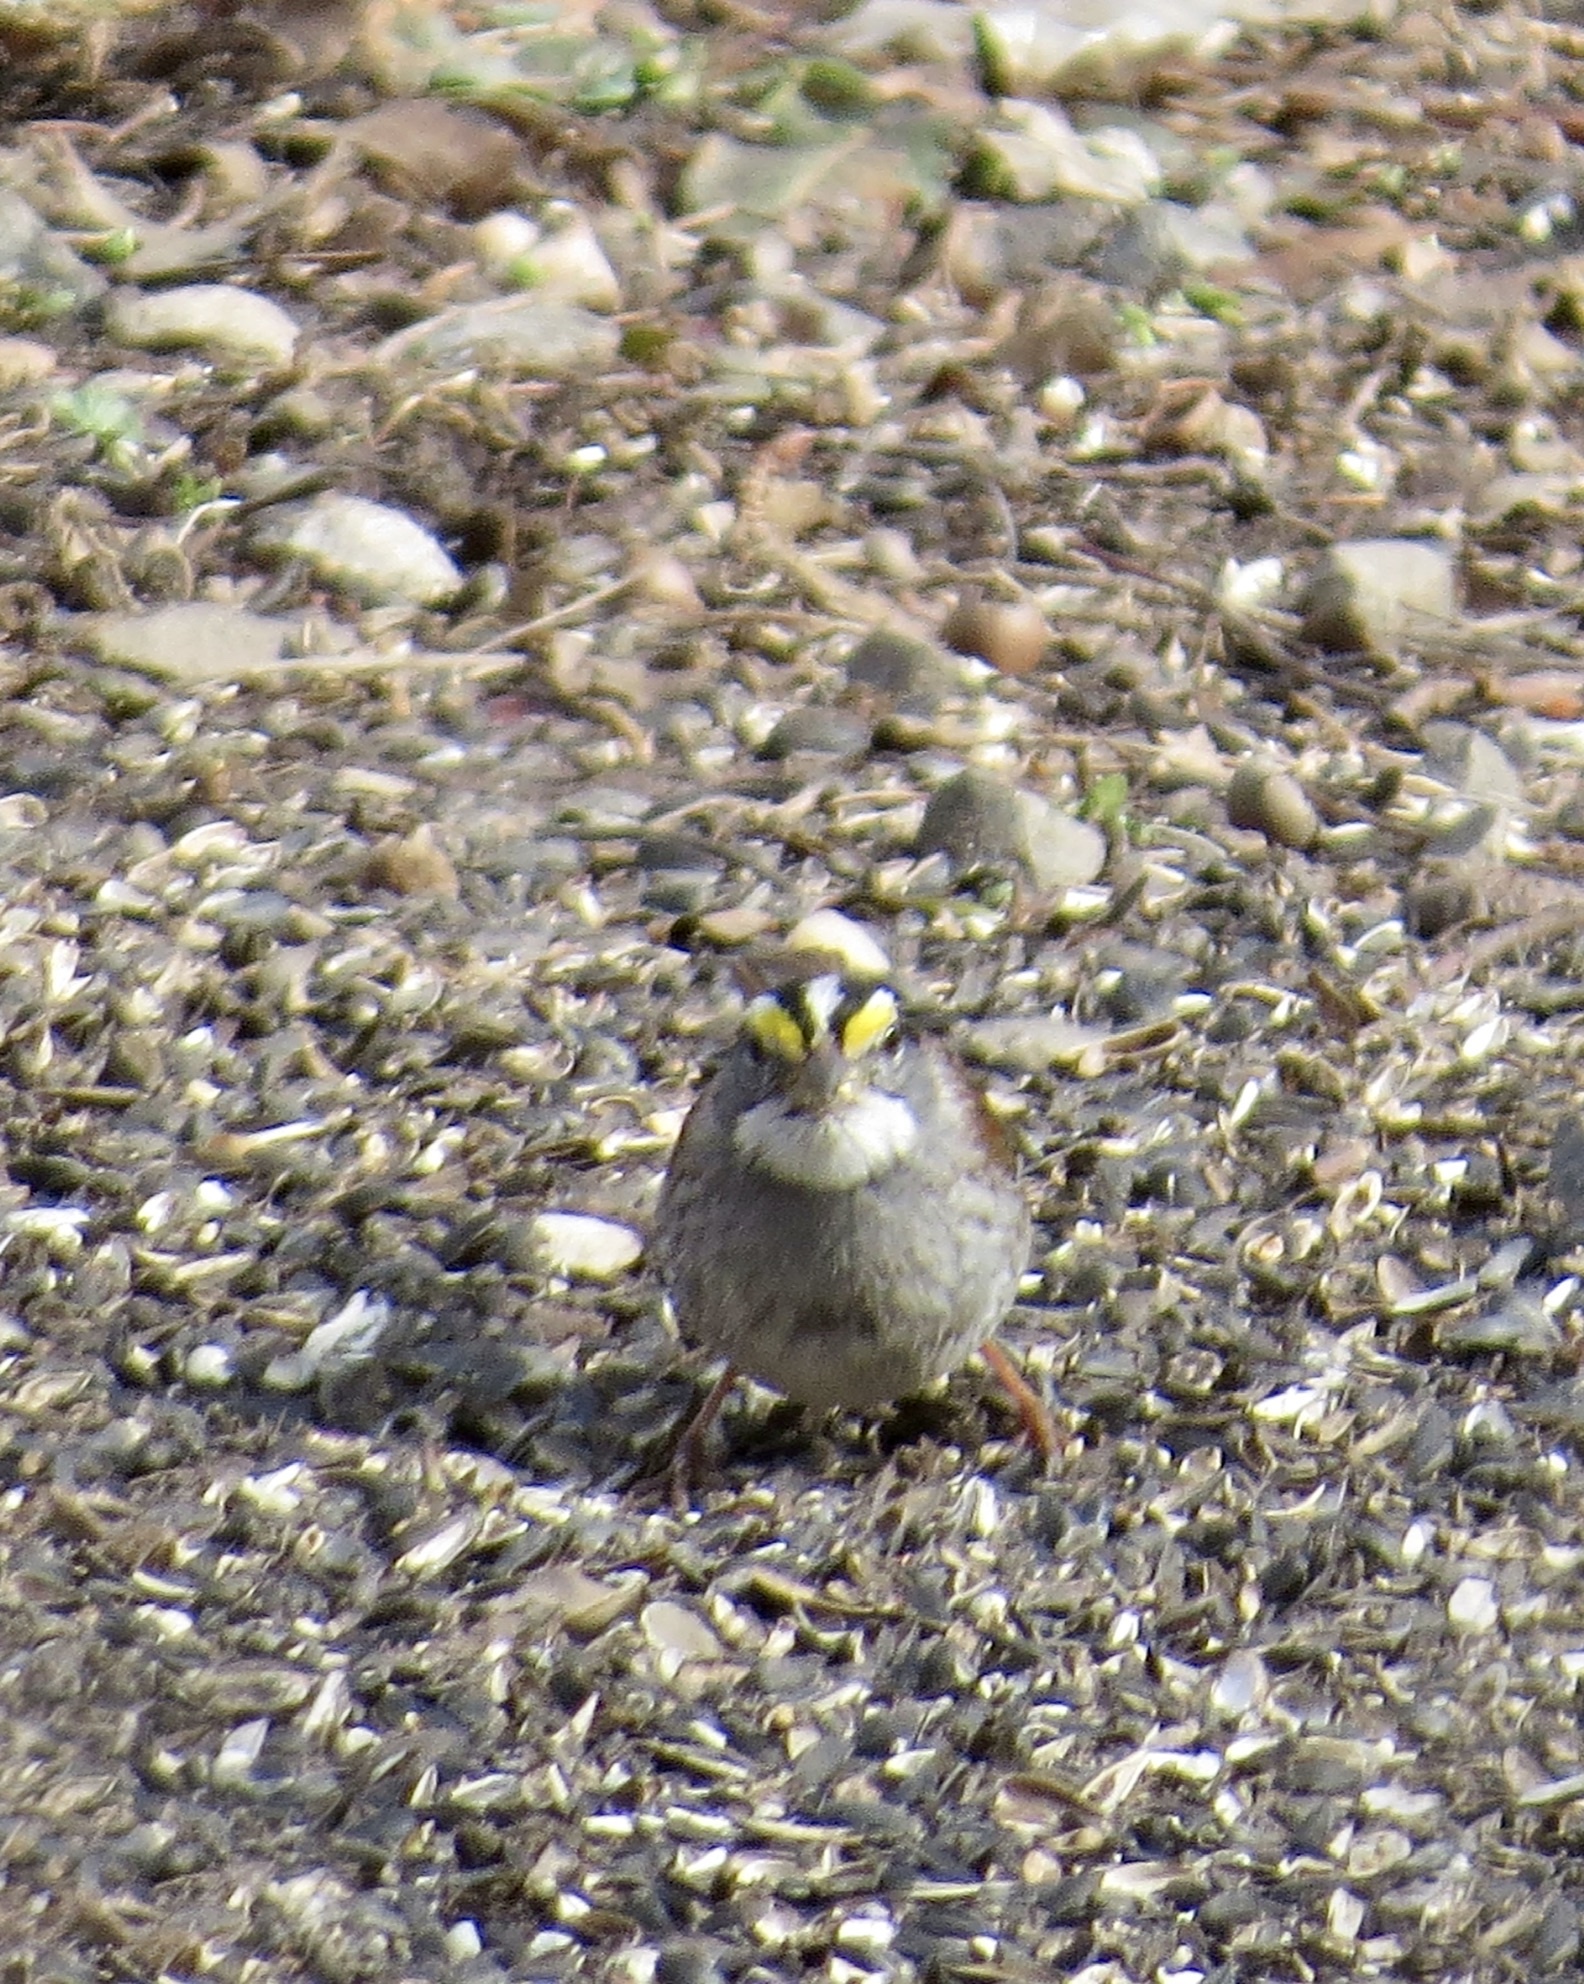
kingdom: Animalia
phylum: Chordata
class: Aves
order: Passeriformes
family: Passerellidae
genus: Zonotrichia
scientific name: Zonotrichia albicollis
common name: White-throated sparrow
